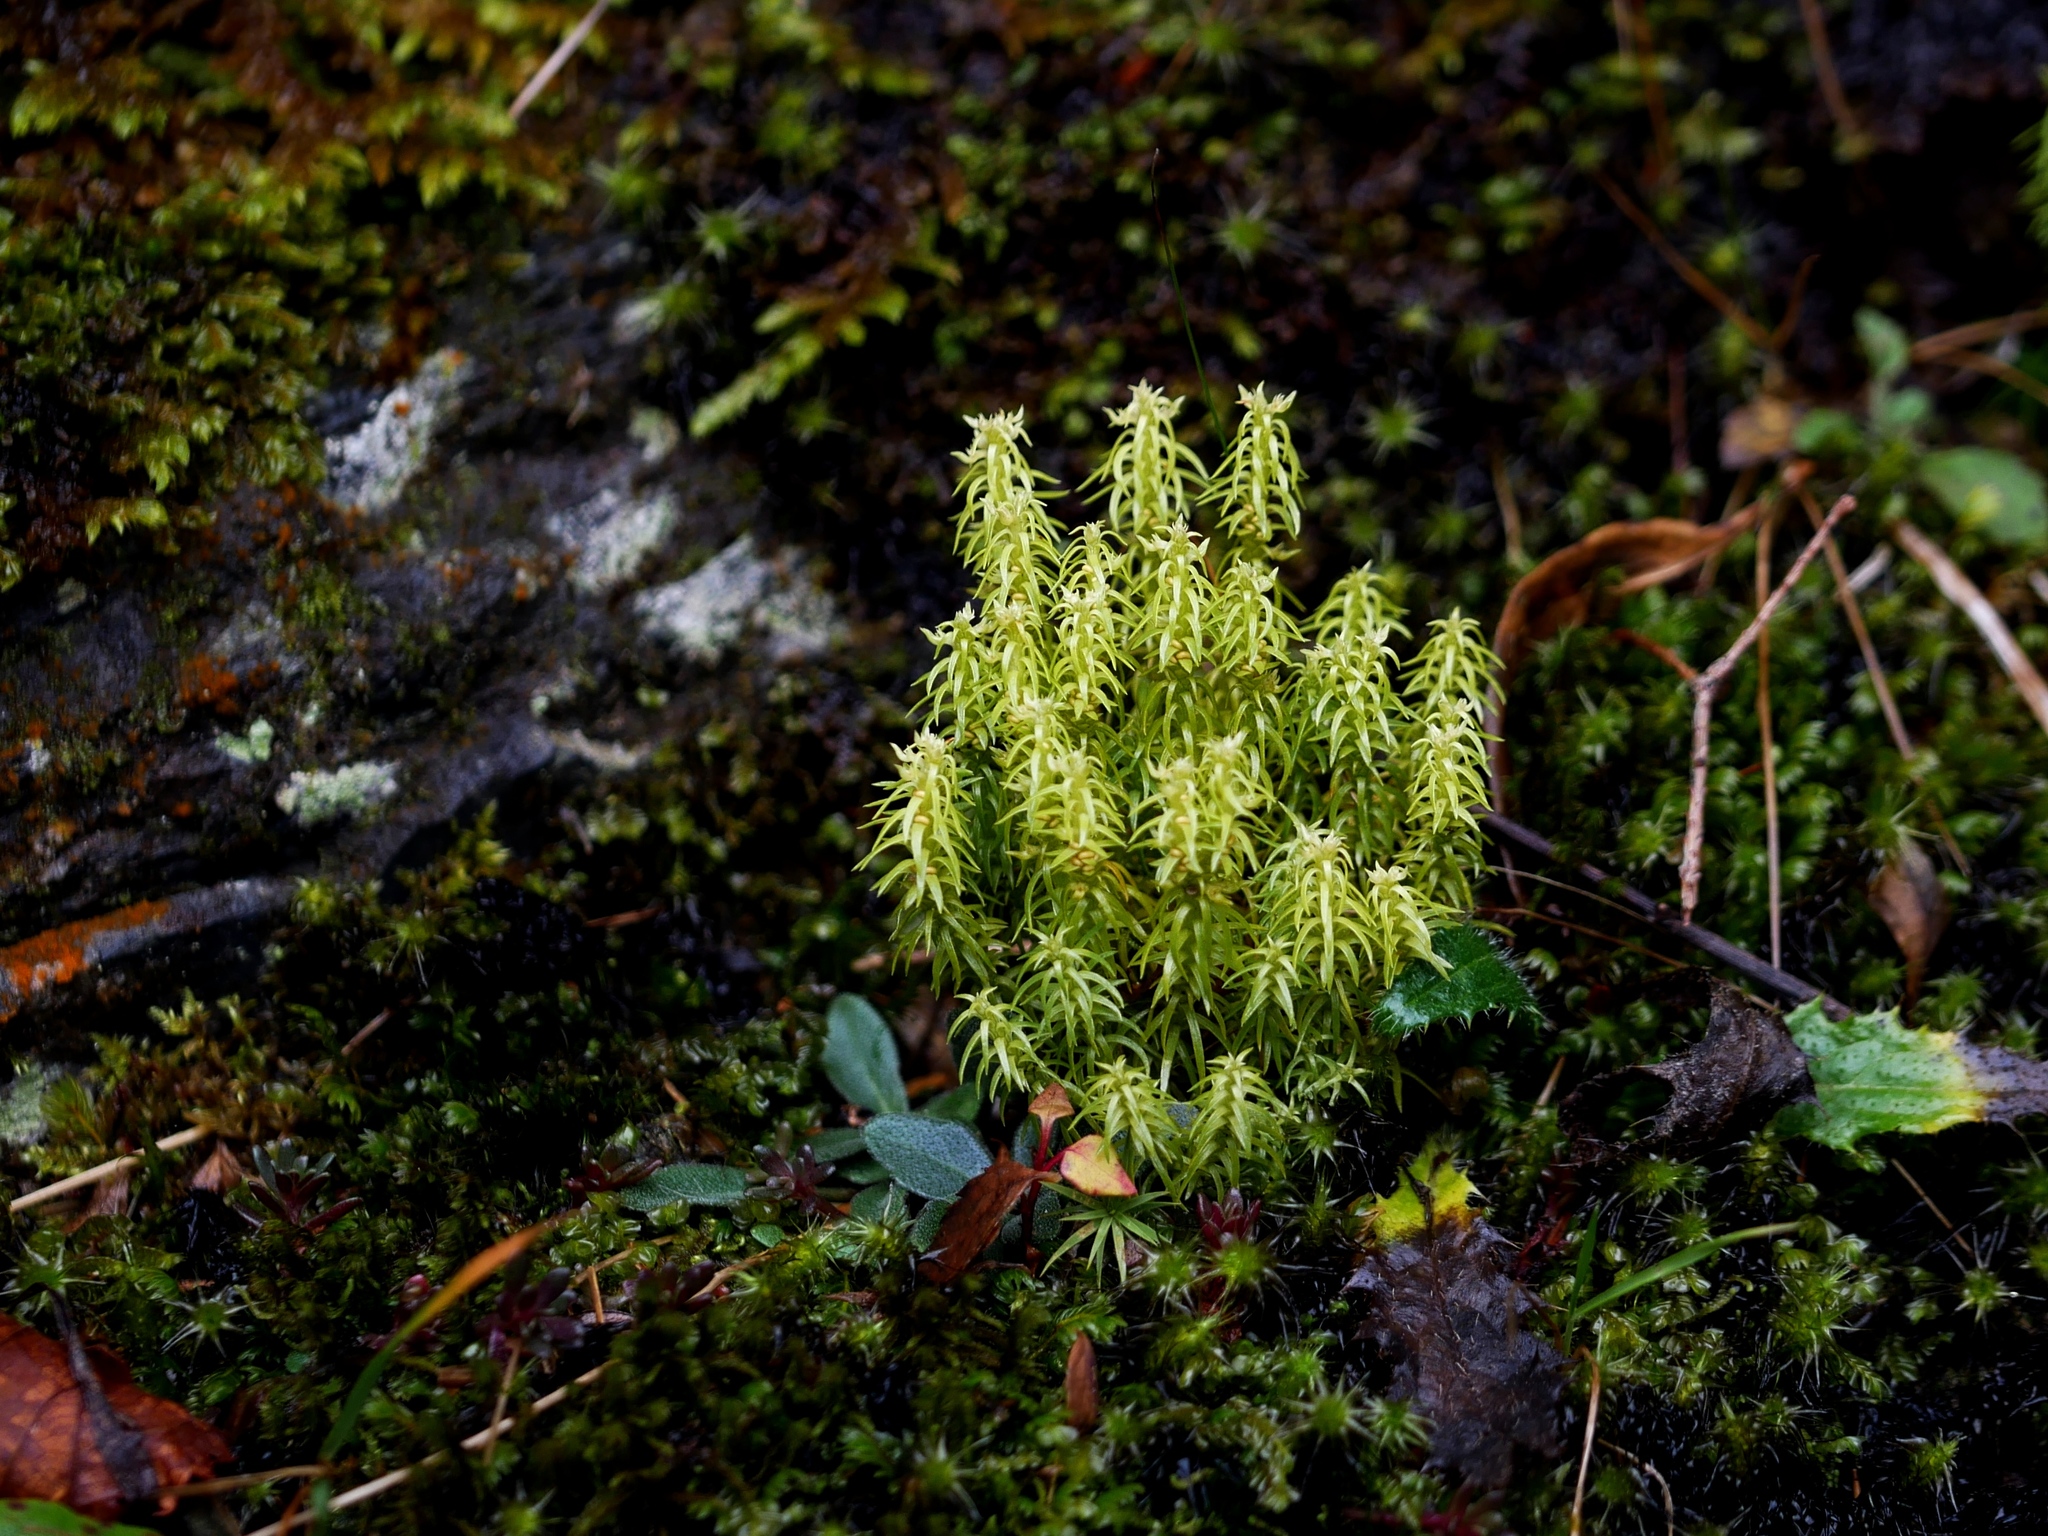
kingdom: Plantae
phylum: Tracheophyta
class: Lycopodiopsida
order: Lycopodiales
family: Lycopodiaceae
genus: Huperzia
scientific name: Huperzia quasipolytrichoides
